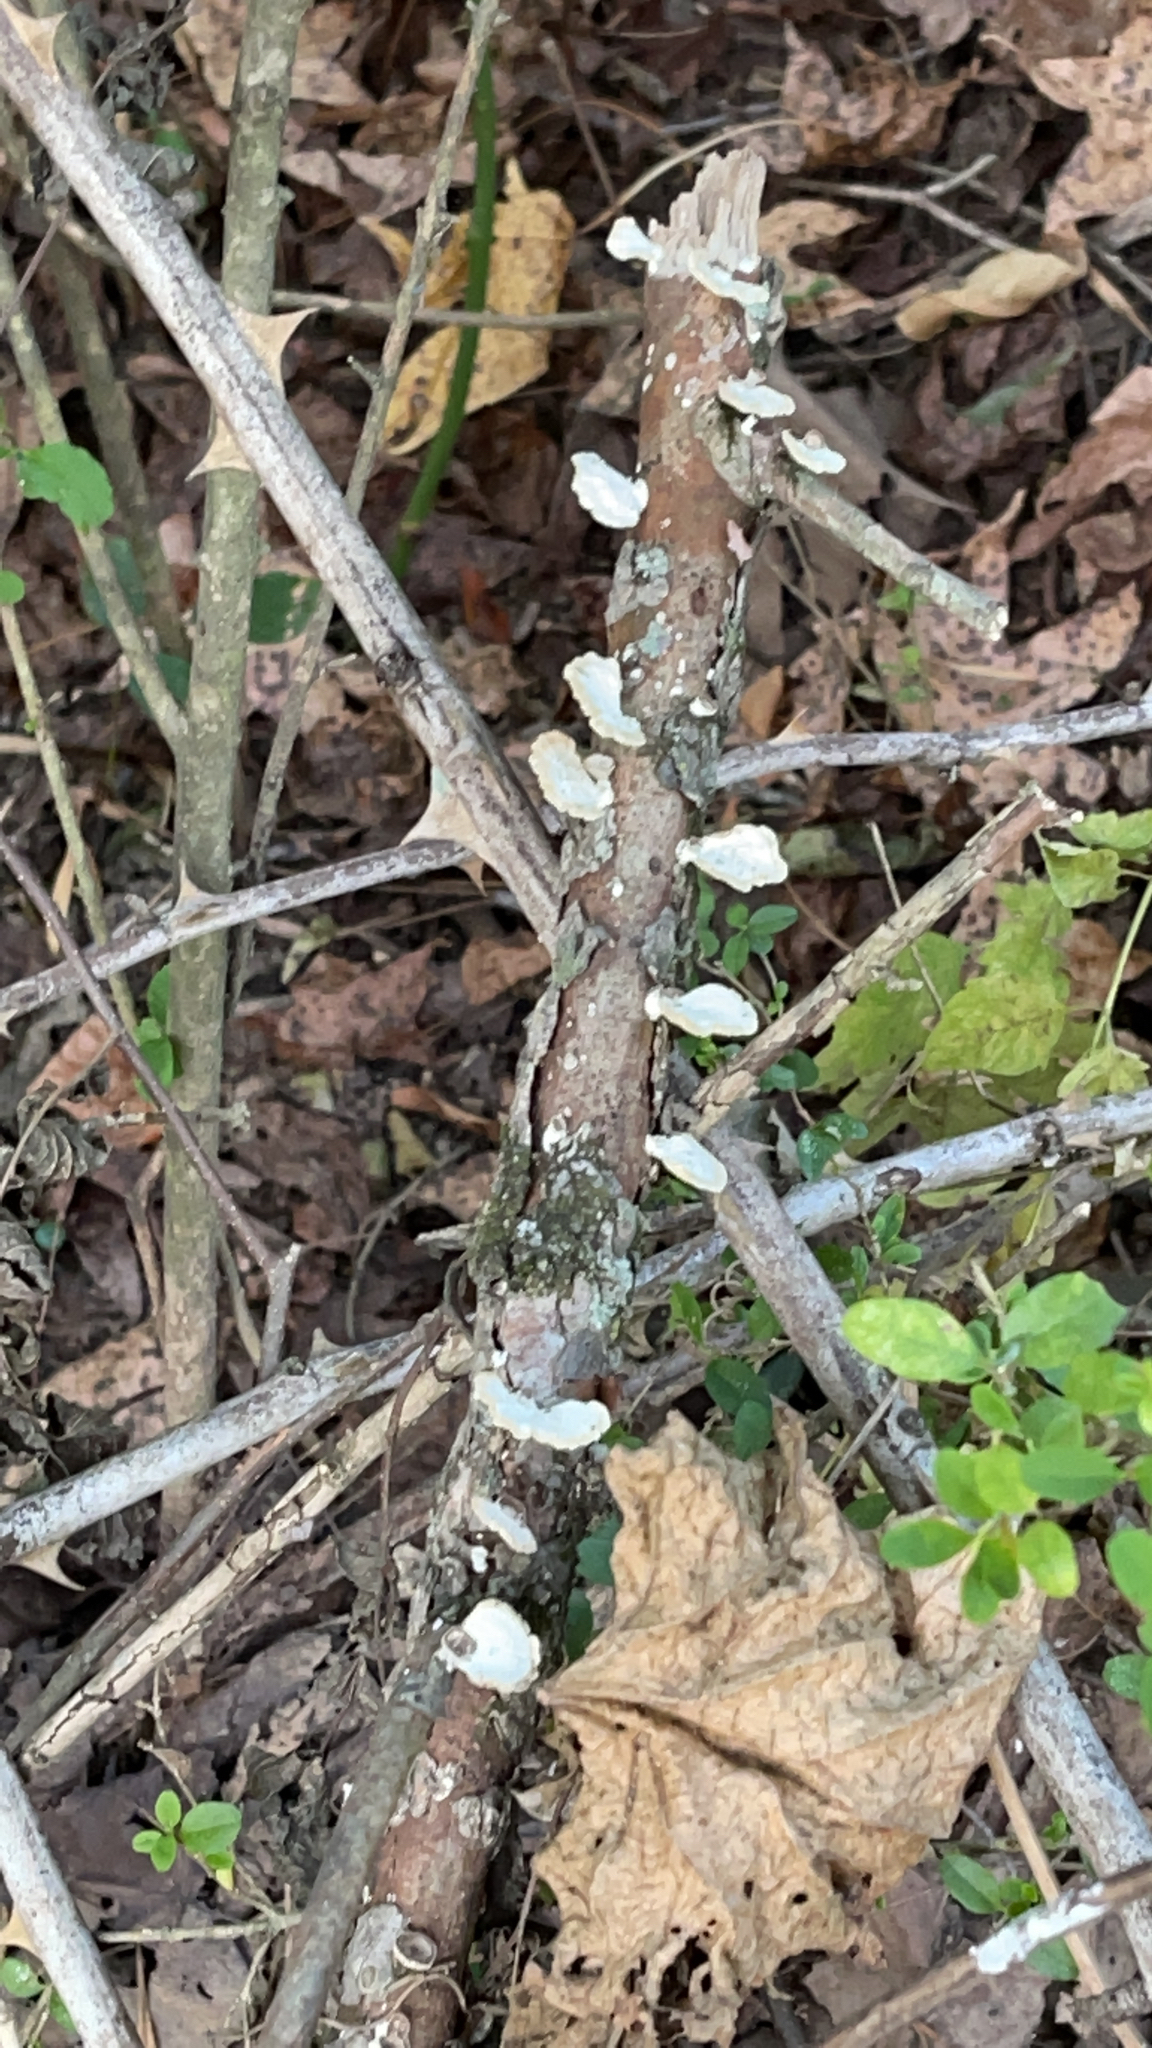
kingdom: Fungi
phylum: Basidiomycota
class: Agaricomycetes
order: Polyporales
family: Polyporaceae
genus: Poronidulus
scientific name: Poronidulus conchifer
